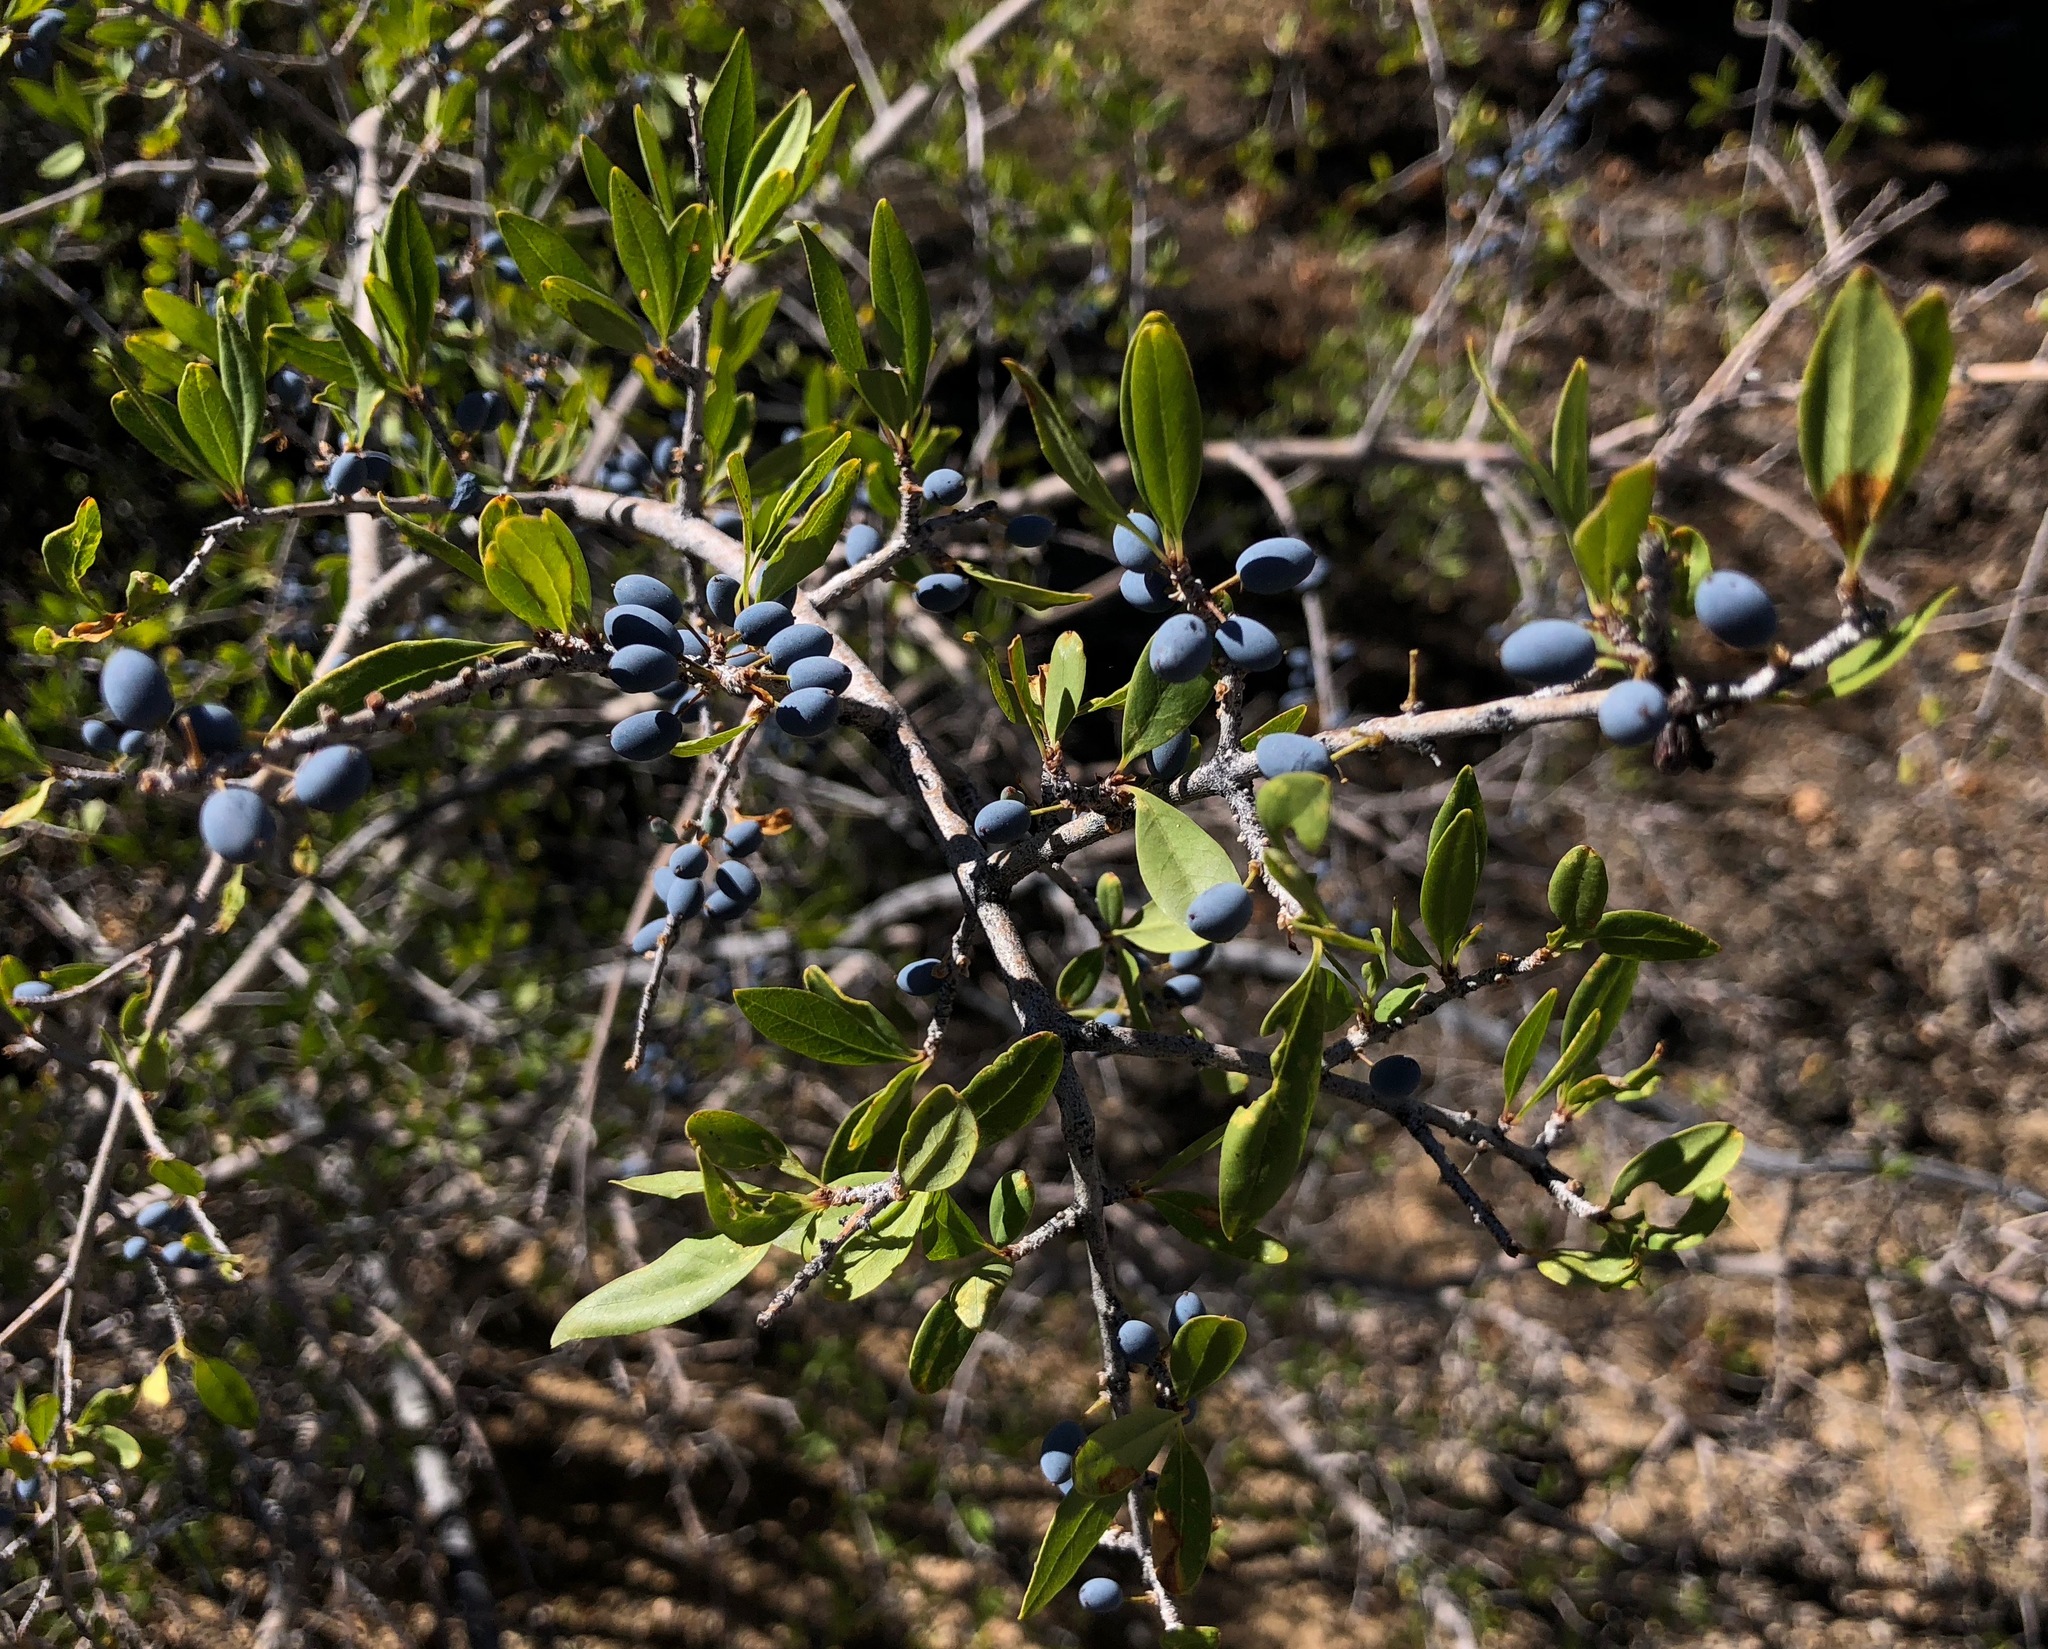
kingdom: Plantae
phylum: Tracheophyta
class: Magnoliopsida
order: Lamiales
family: Oleaceae
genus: Forestiera
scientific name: Forestiera pubescens
